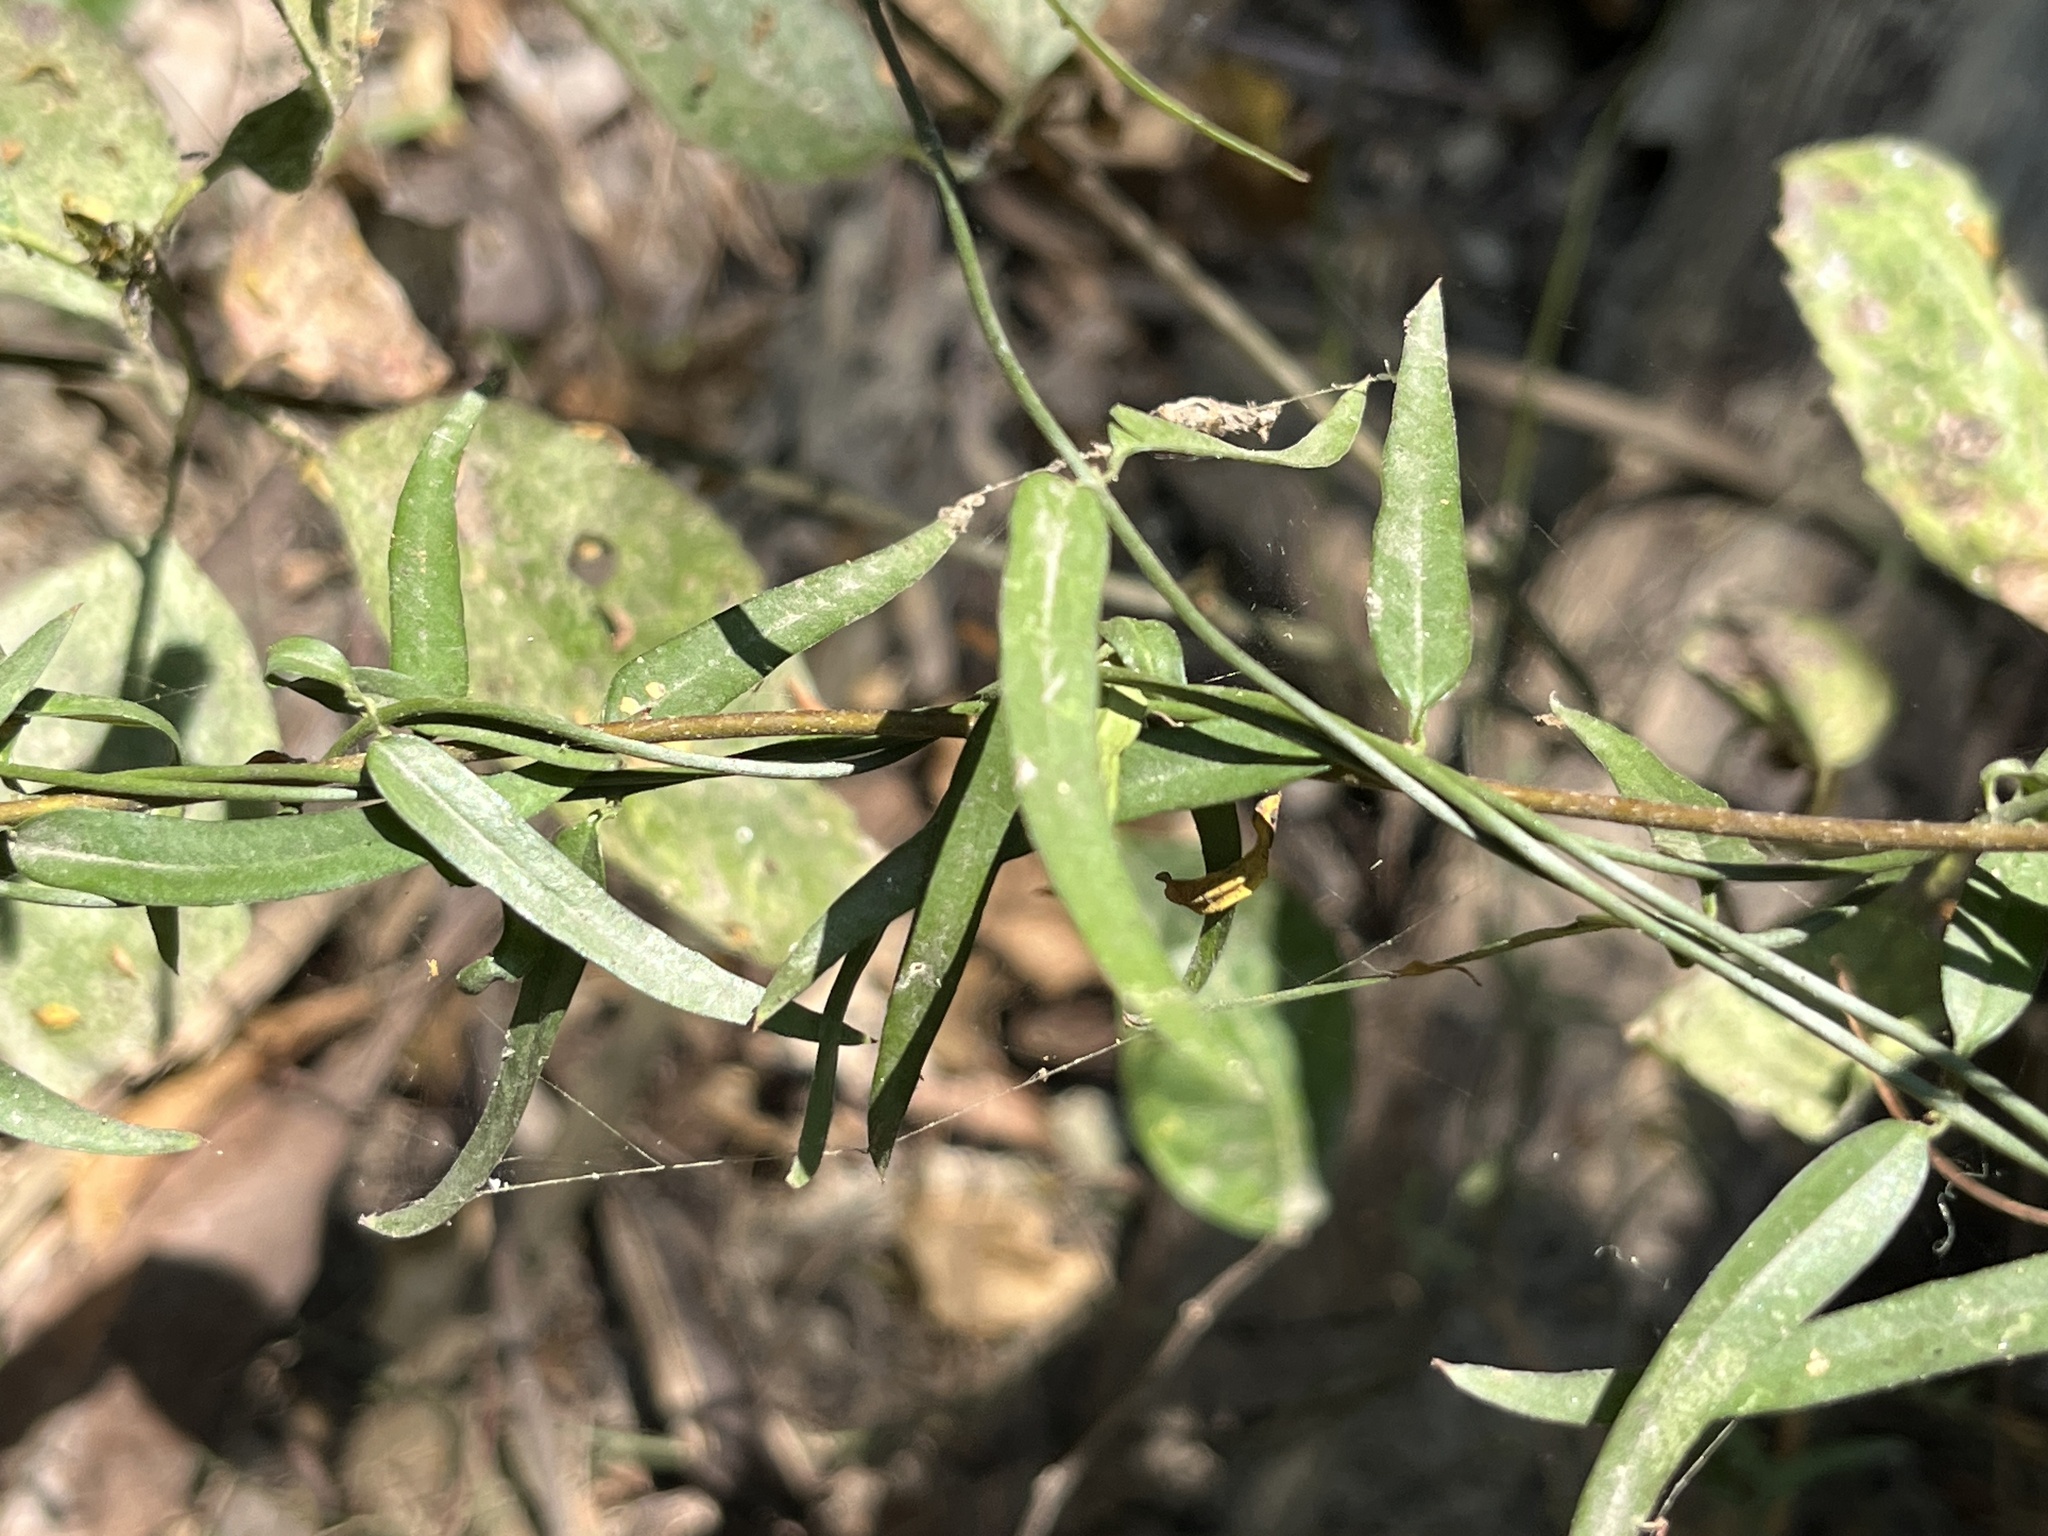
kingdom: Plantae
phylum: Tracheophyta
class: Magnoliopsida
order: Lamiales
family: Oleaceae
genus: Jasminum
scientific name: Jasminum nervosum
